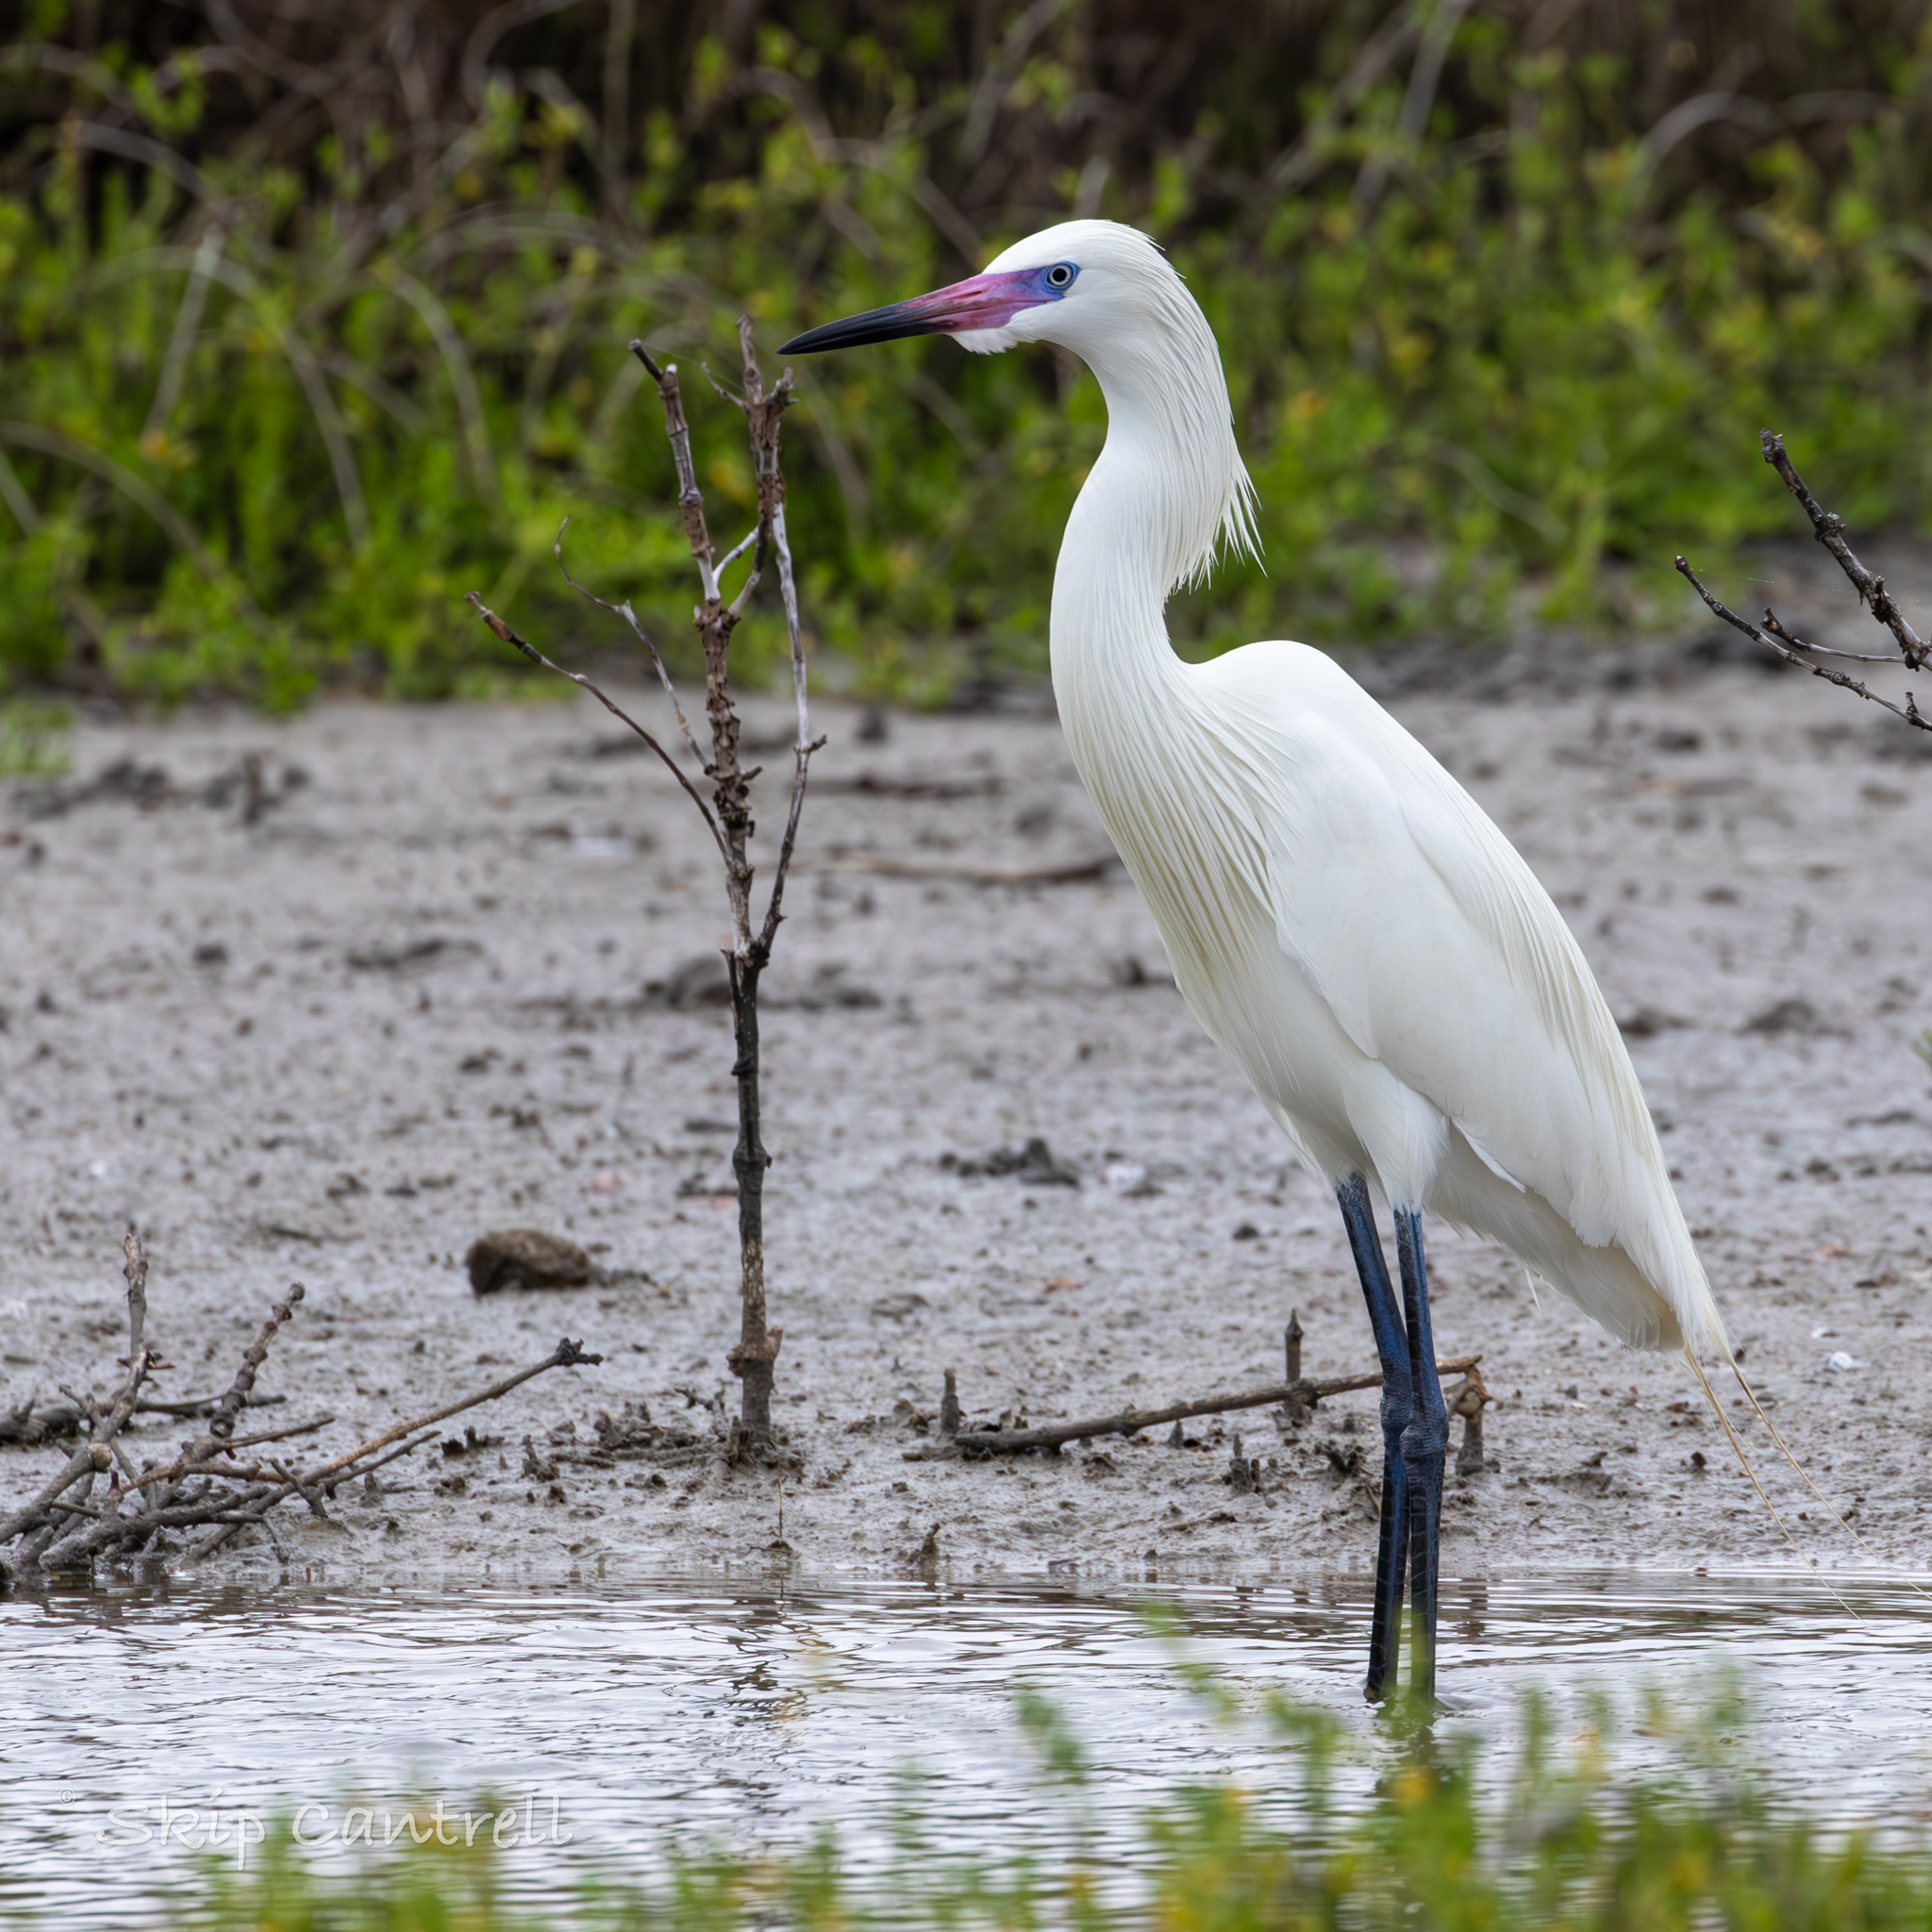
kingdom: Animalia
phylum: Chordata
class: Aves
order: Pelecaniformes
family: Ardeidae
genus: Egretta
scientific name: Egretta rufescens
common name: Reddish egret
